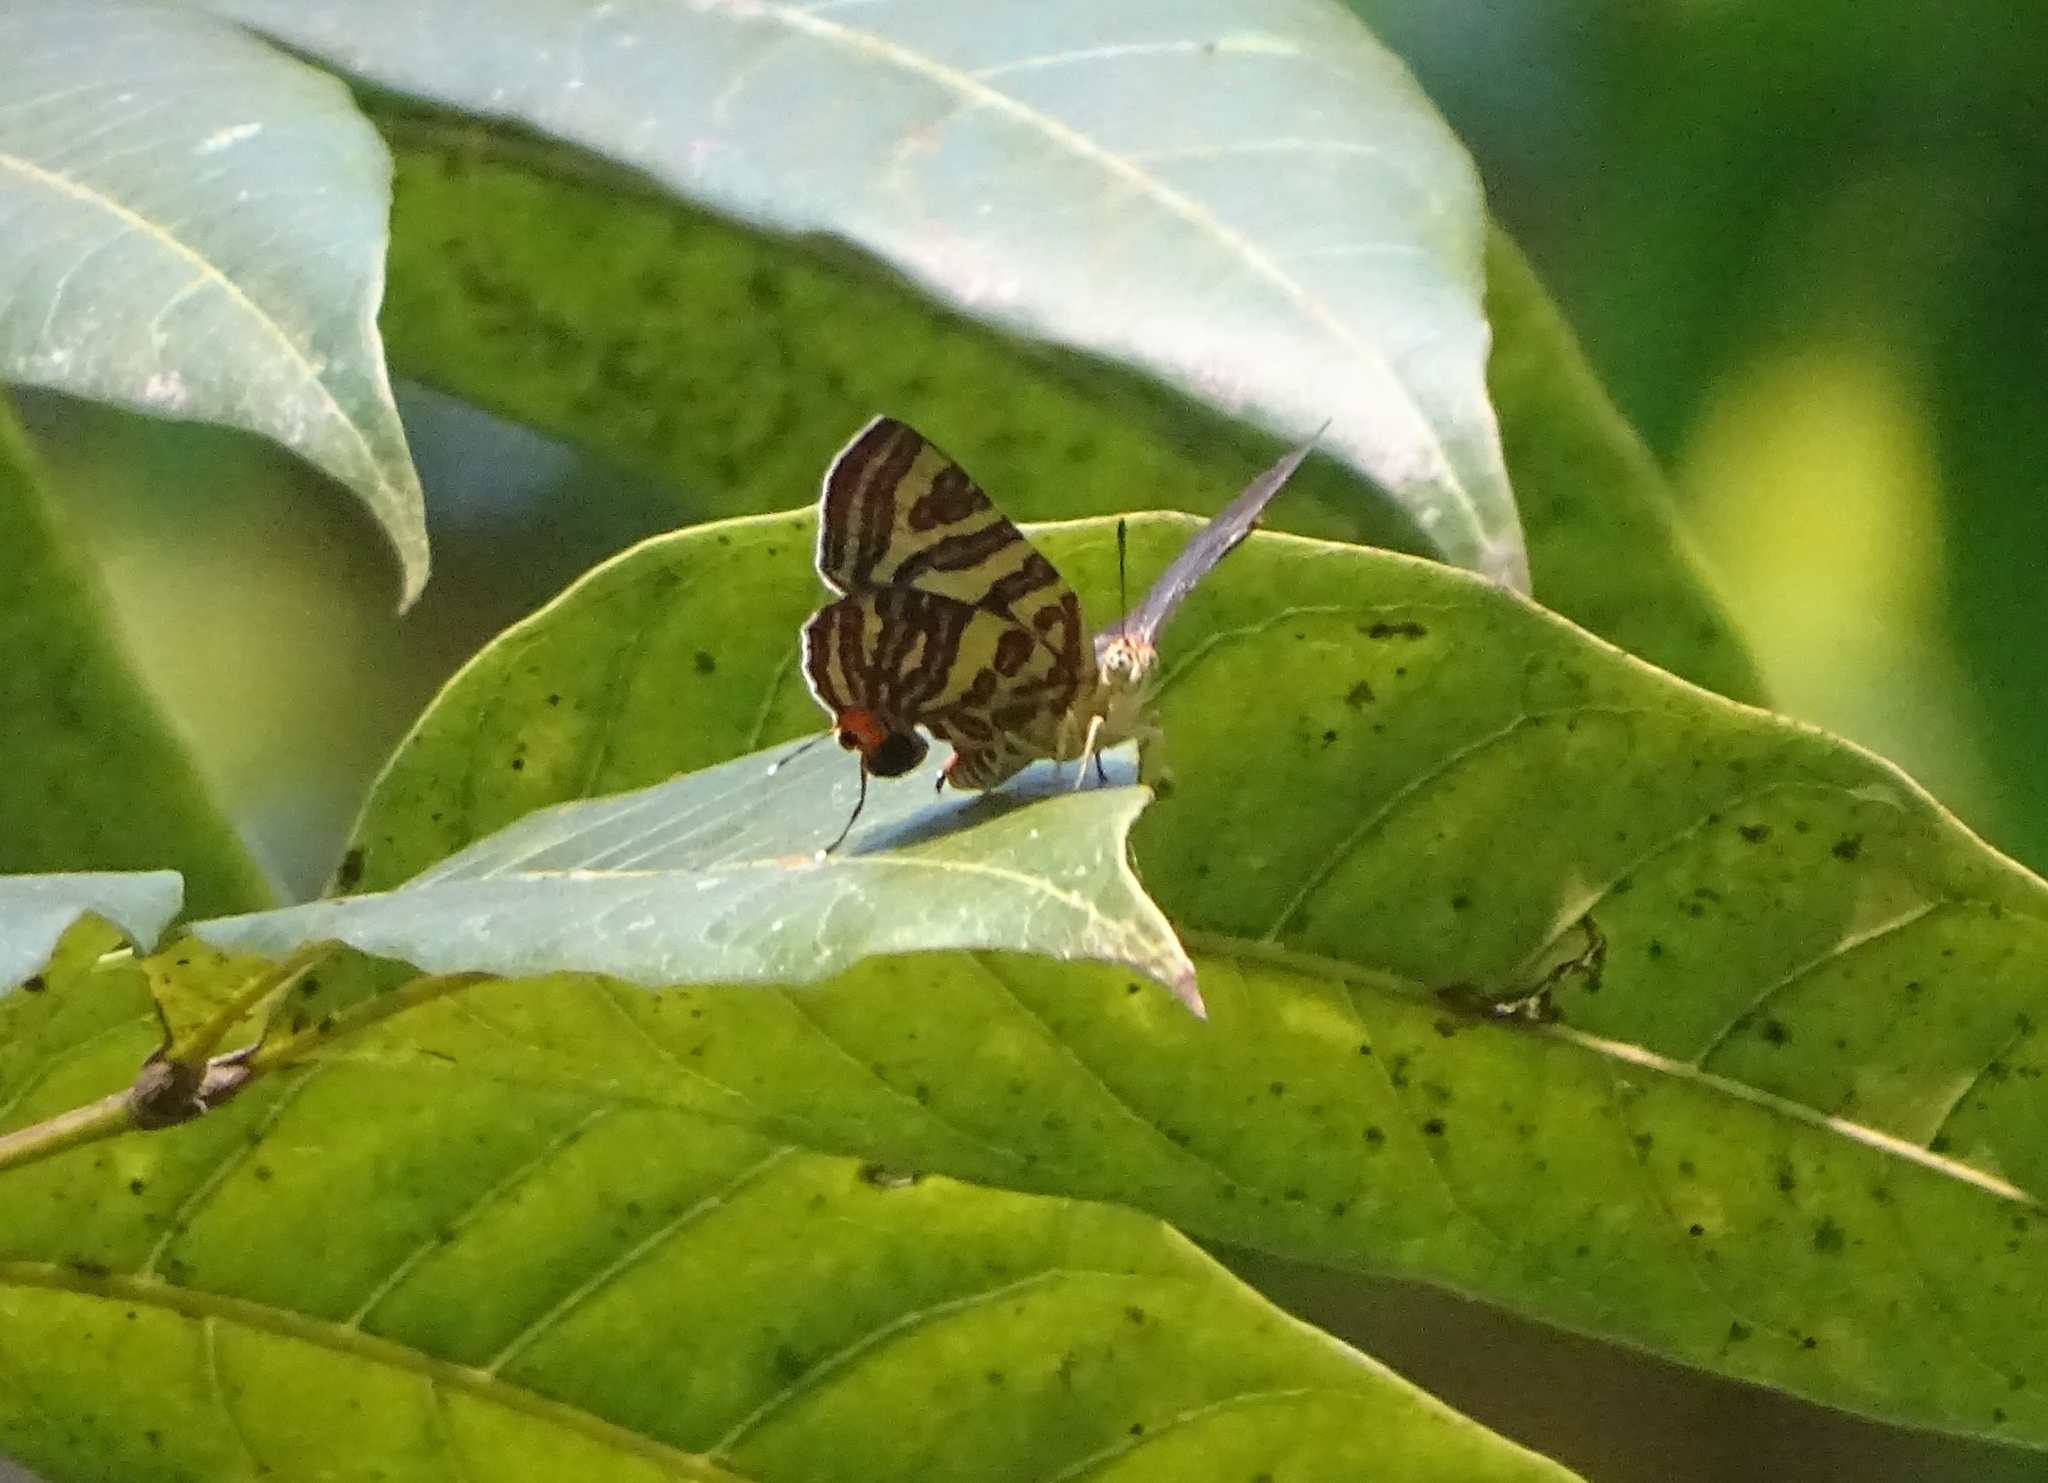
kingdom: Animalia
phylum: Arthropoda
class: Insecta
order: Lepidoptera
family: Lycaenidae
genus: Cigaritis
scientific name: Cigaritis lohita
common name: Long-banded silverline
